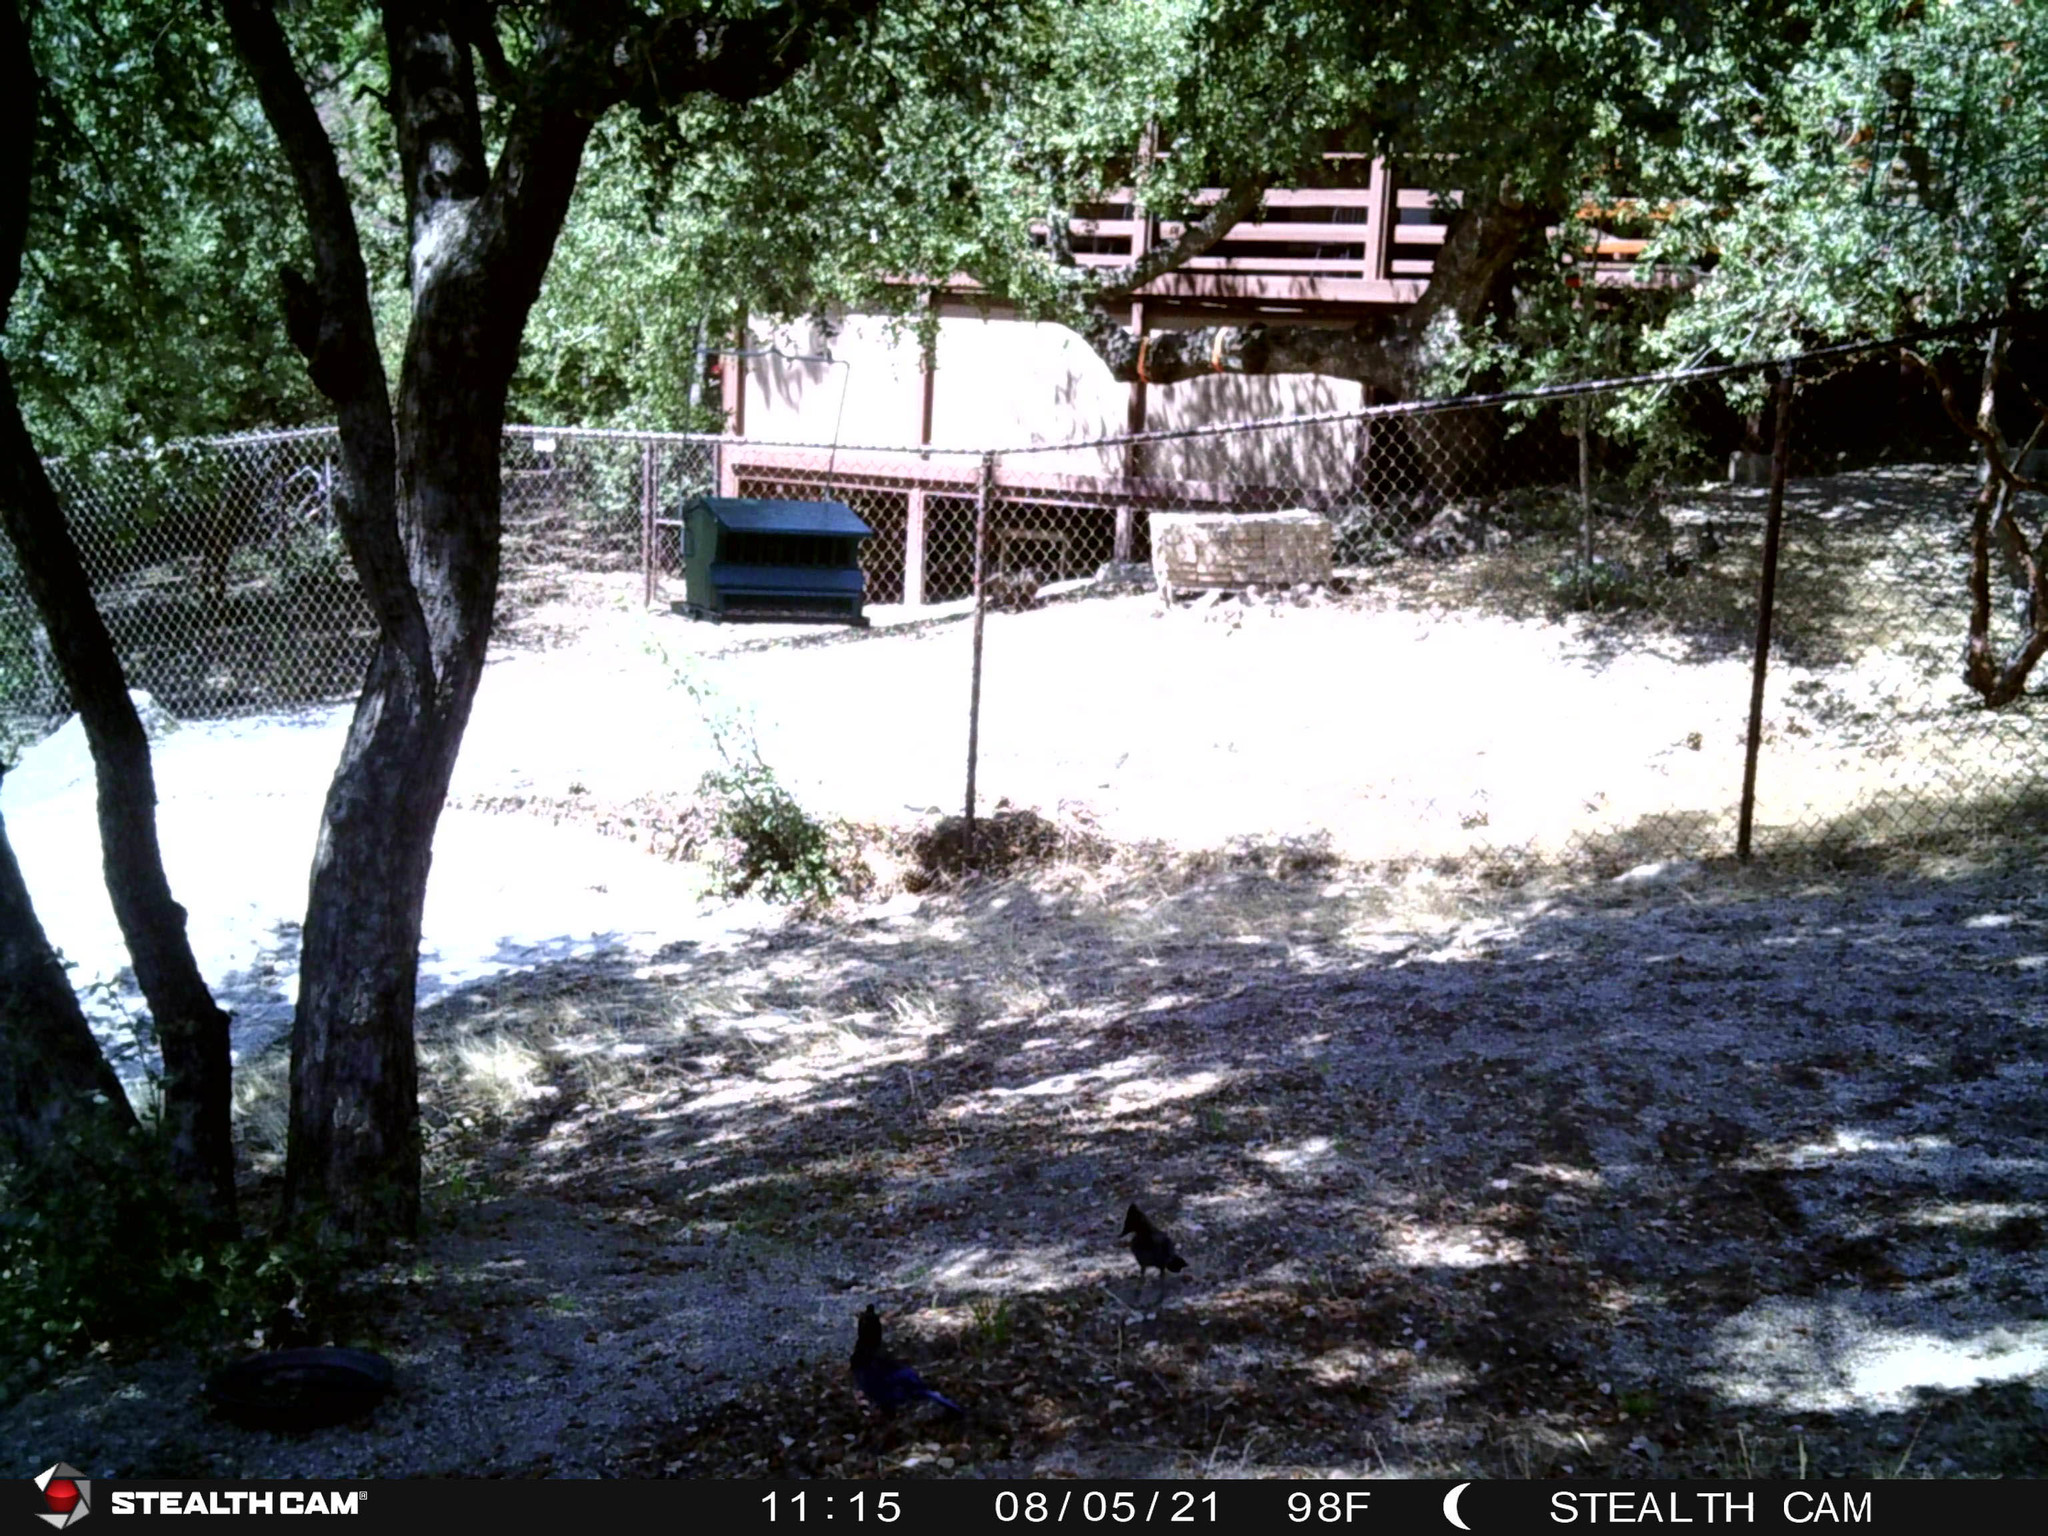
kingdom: Animalia
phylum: Chordata
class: Aves
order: Passeriformes
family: Corvidae
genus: Cyanocitta
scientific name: Cyanocitta stelleri
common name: Steller's jay
